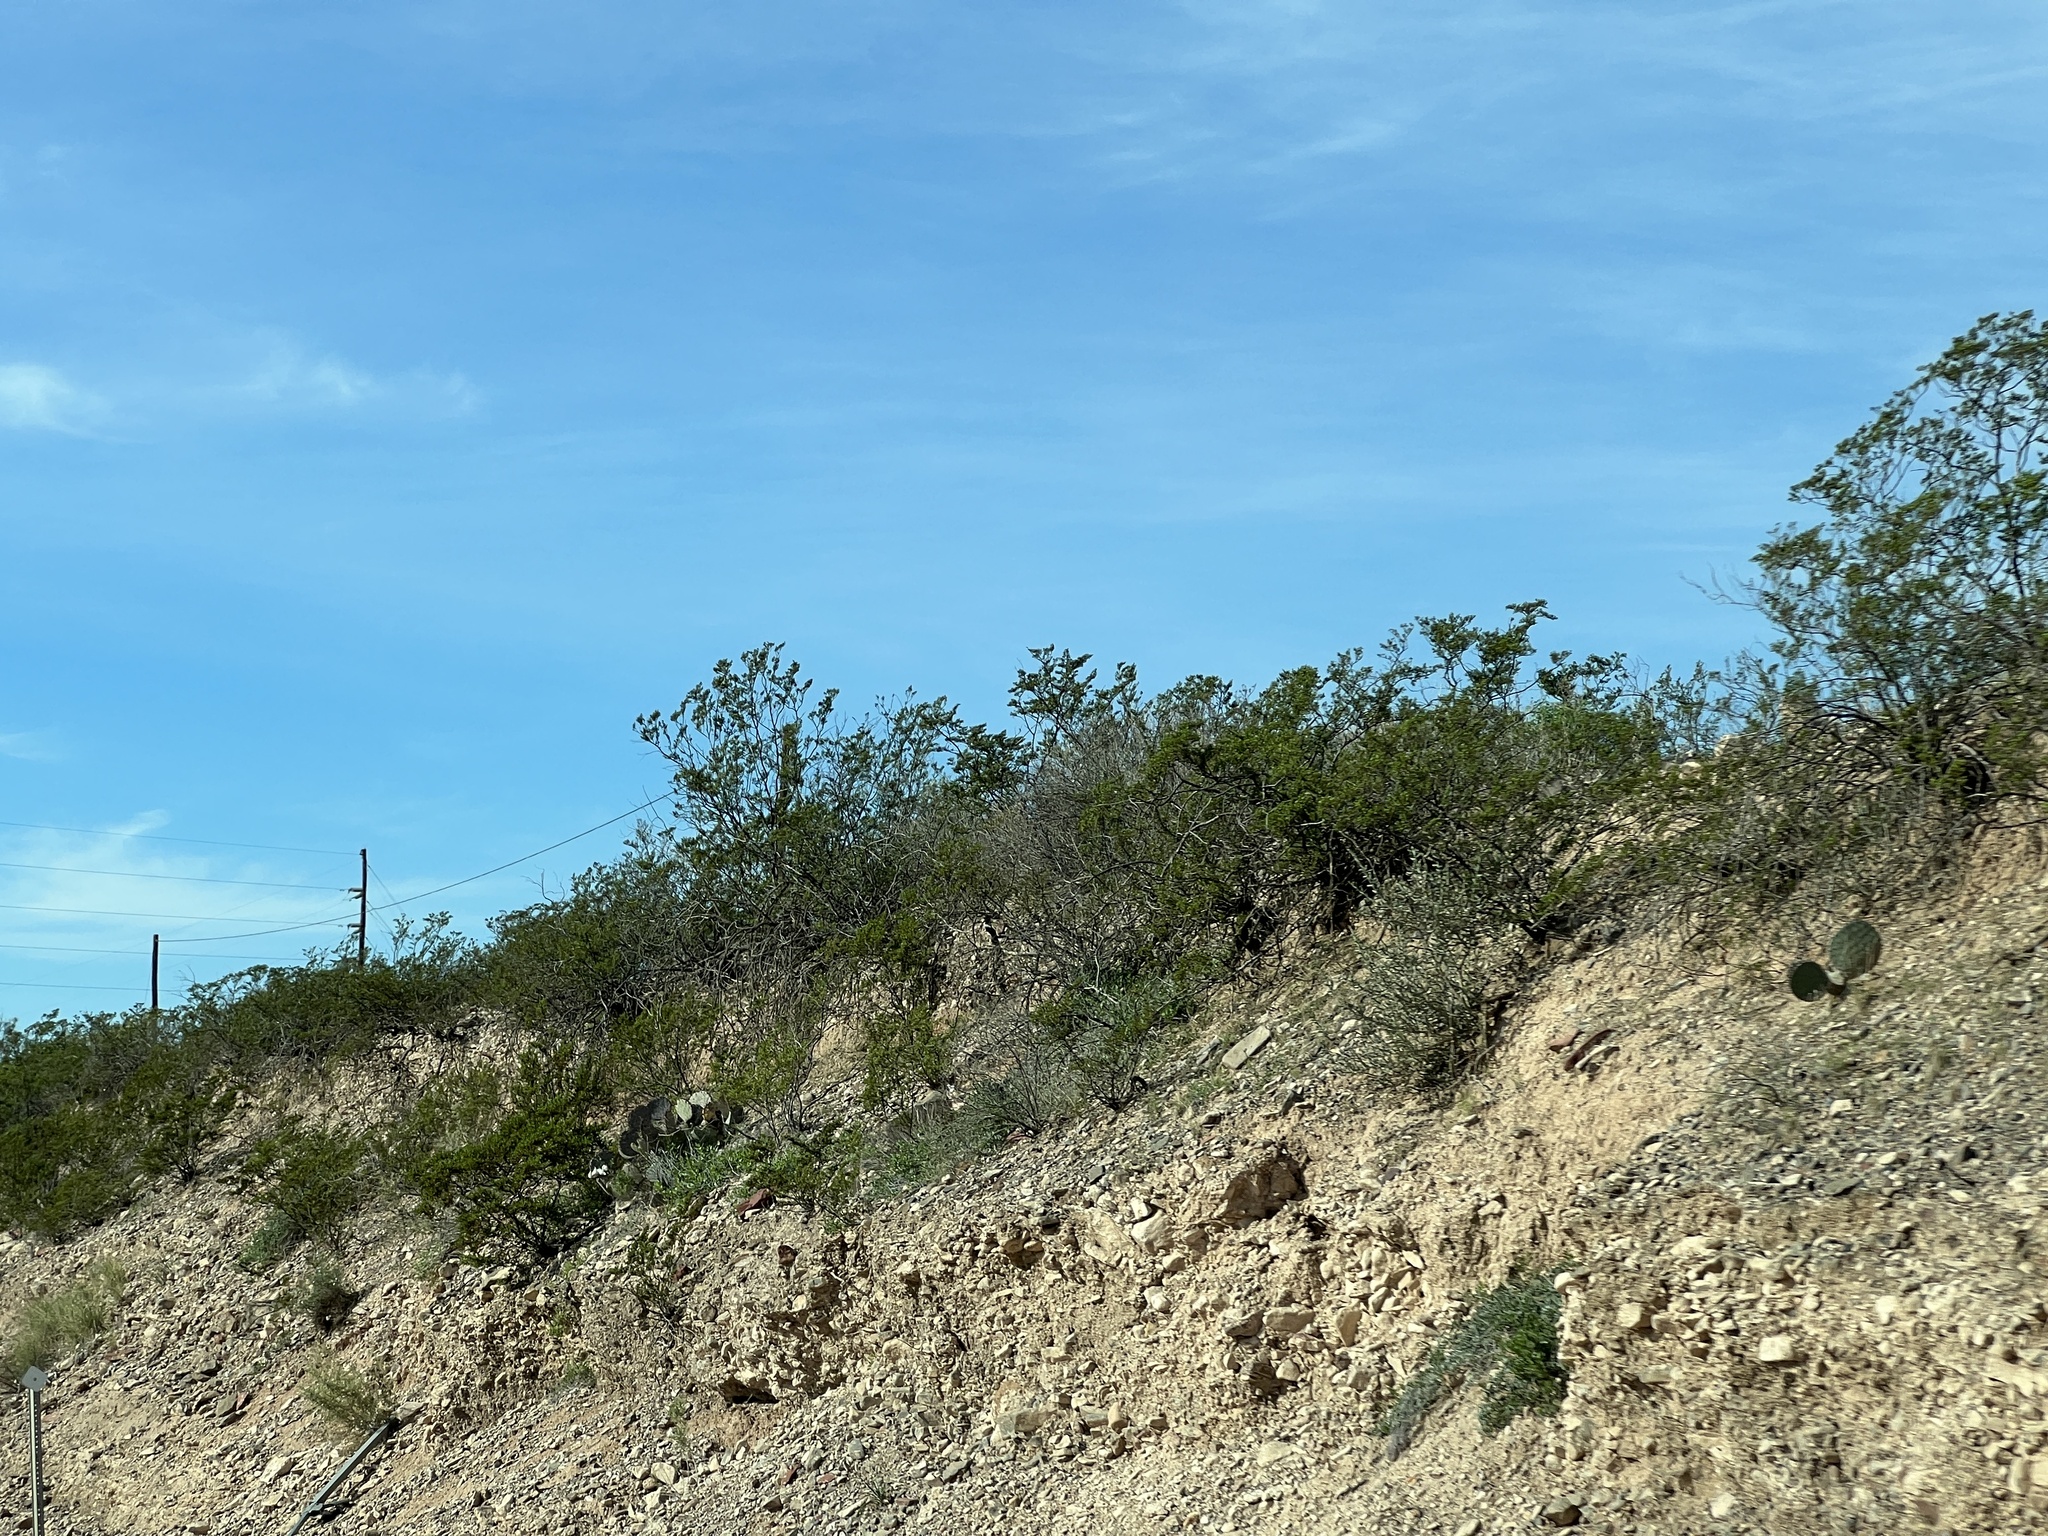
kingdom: Plantae
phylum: Tracheophyta
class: Magnoliopsida
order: Zygophyllales
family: Zygophyllaceae
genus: Larrea
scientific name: Larrea tridentata
